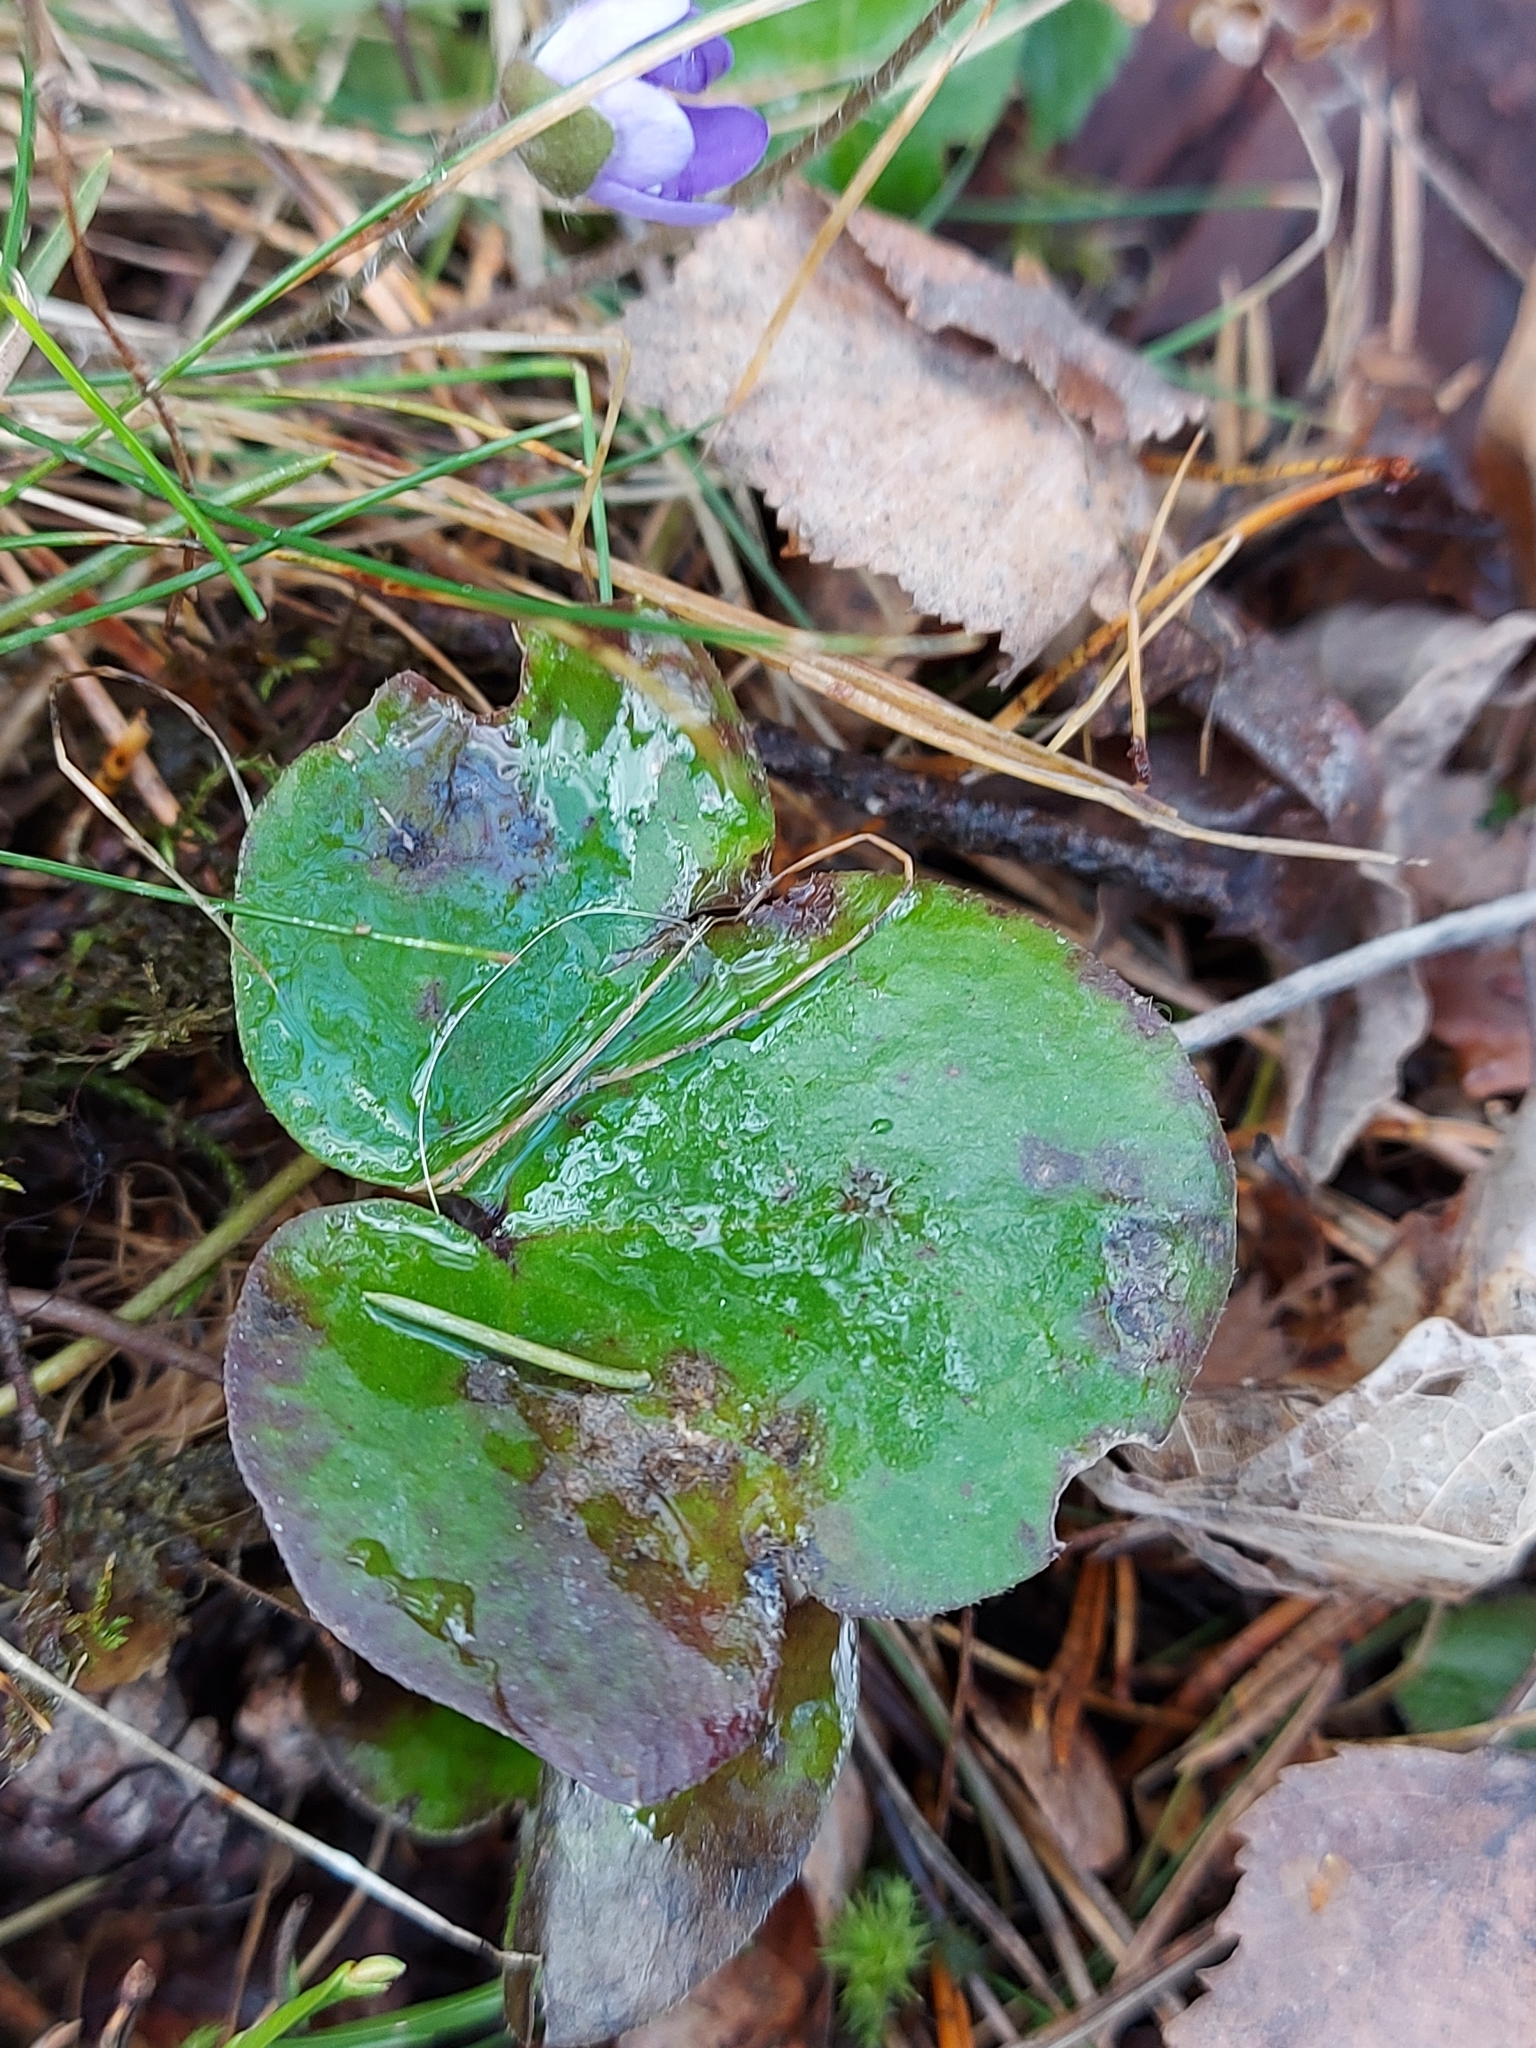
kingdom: Plantae
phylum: Tracheophyta
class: Magnoliopsida
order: Ranunculales
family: Ranunculaceae
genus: Hepatica
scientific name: Hepatica nobilis
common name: Liverleaf
